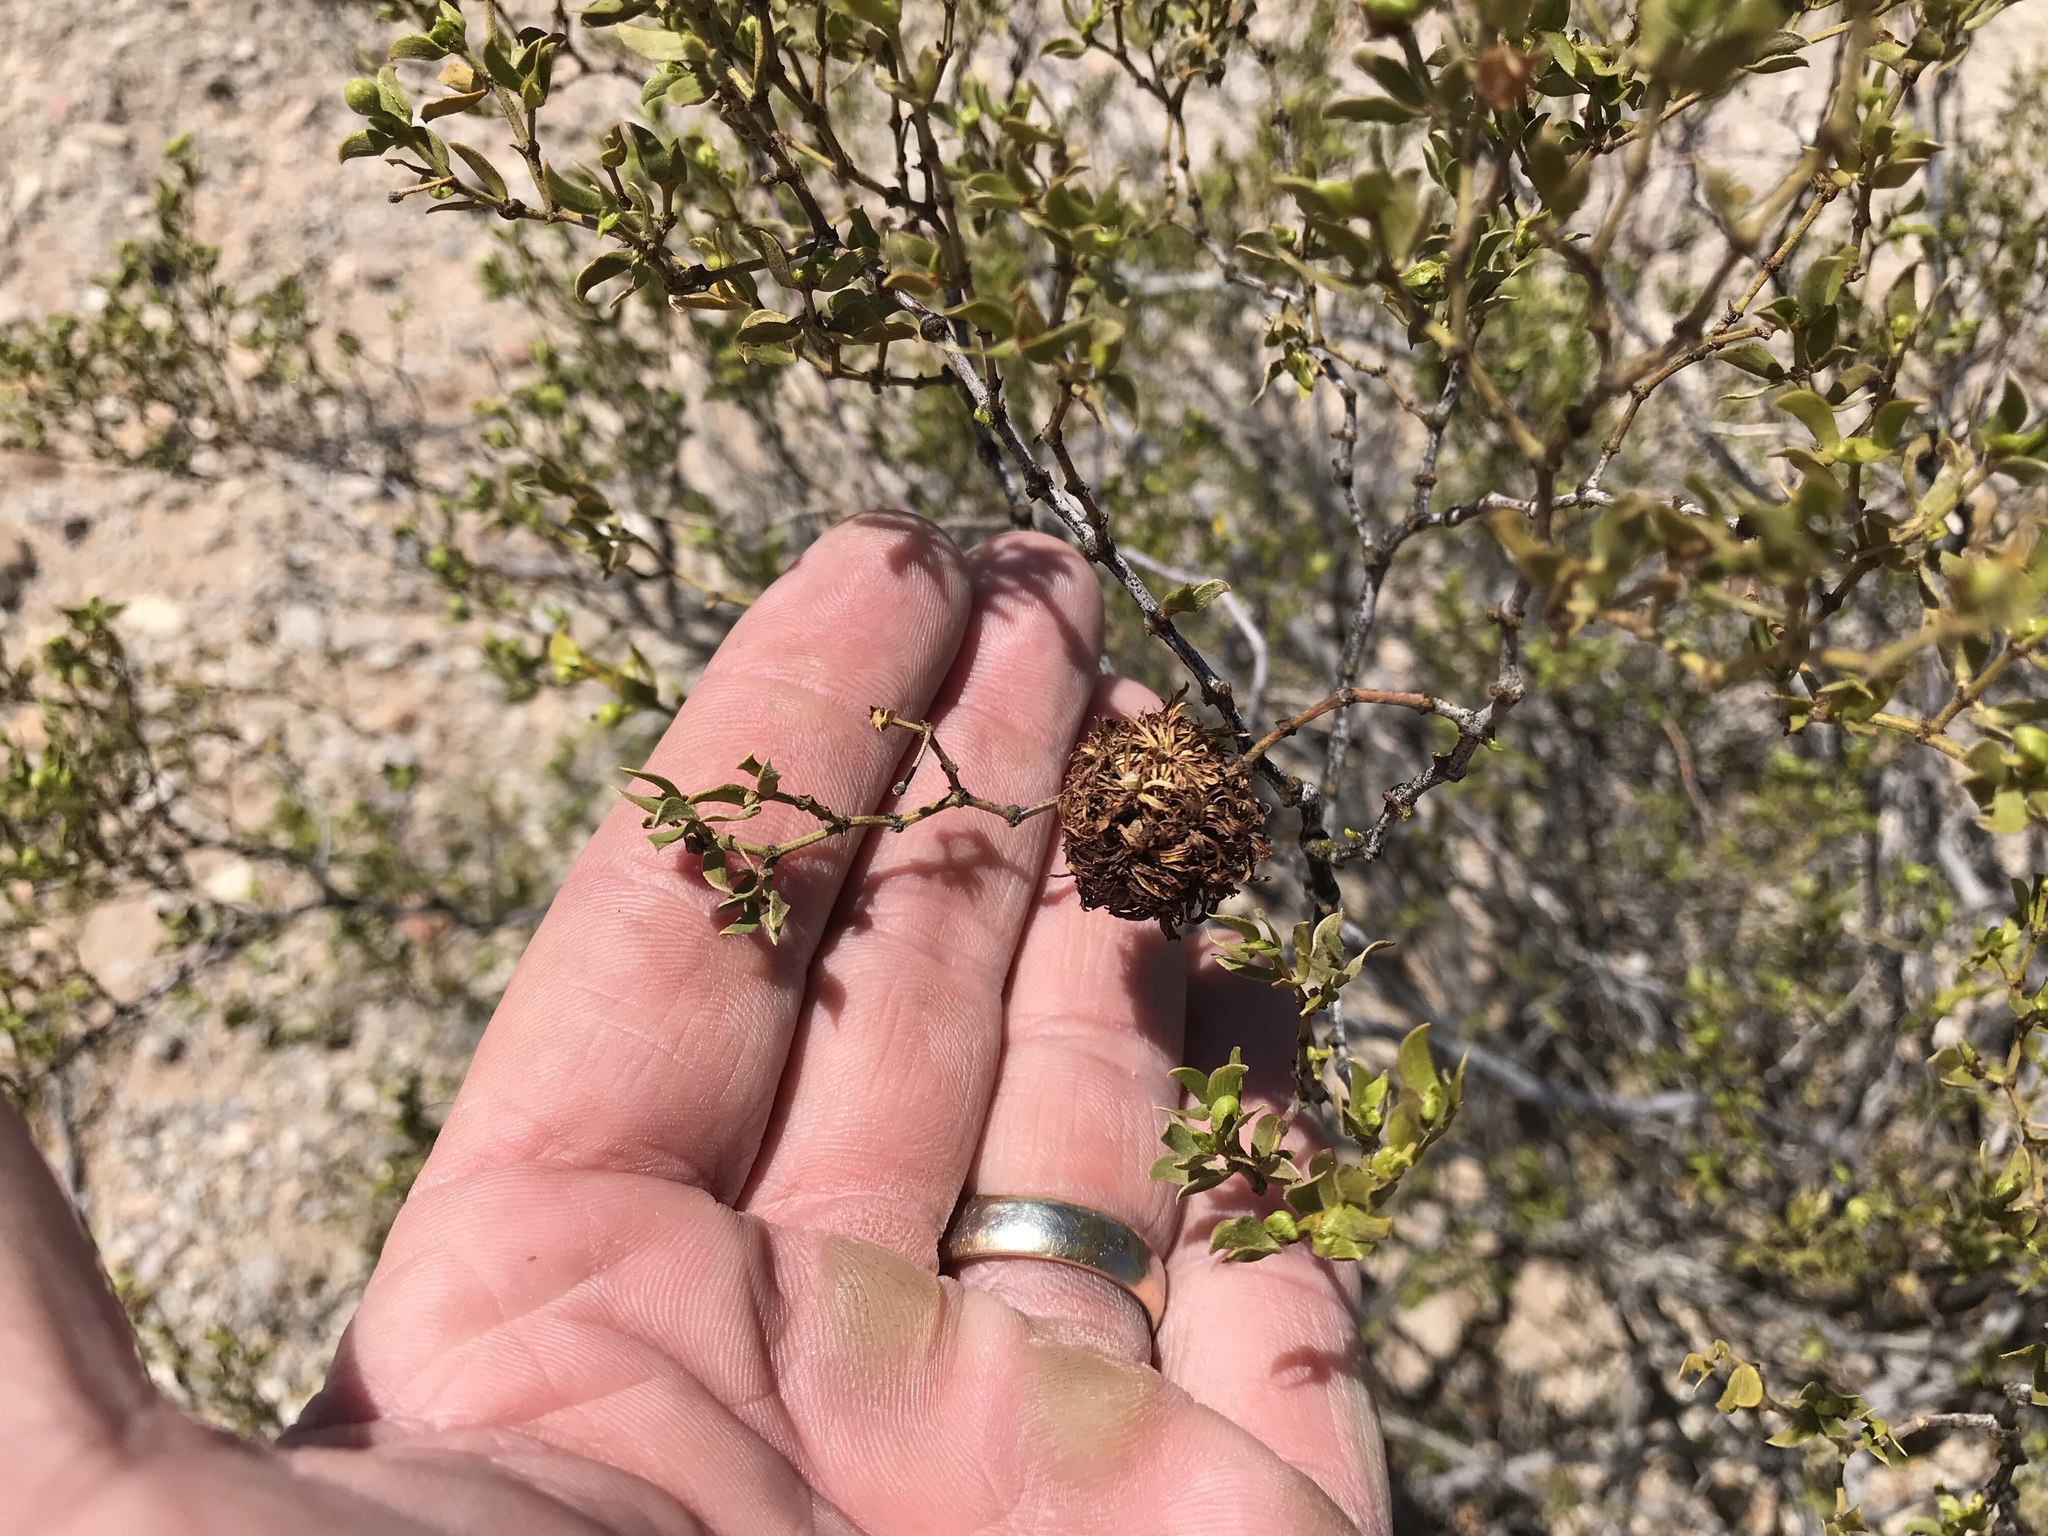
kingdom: Animalia
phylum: Arthropoda
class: Insecta
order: Diptera
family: Cecidomyiidae
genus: Asphondylia
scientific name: Asphondylia auripila
